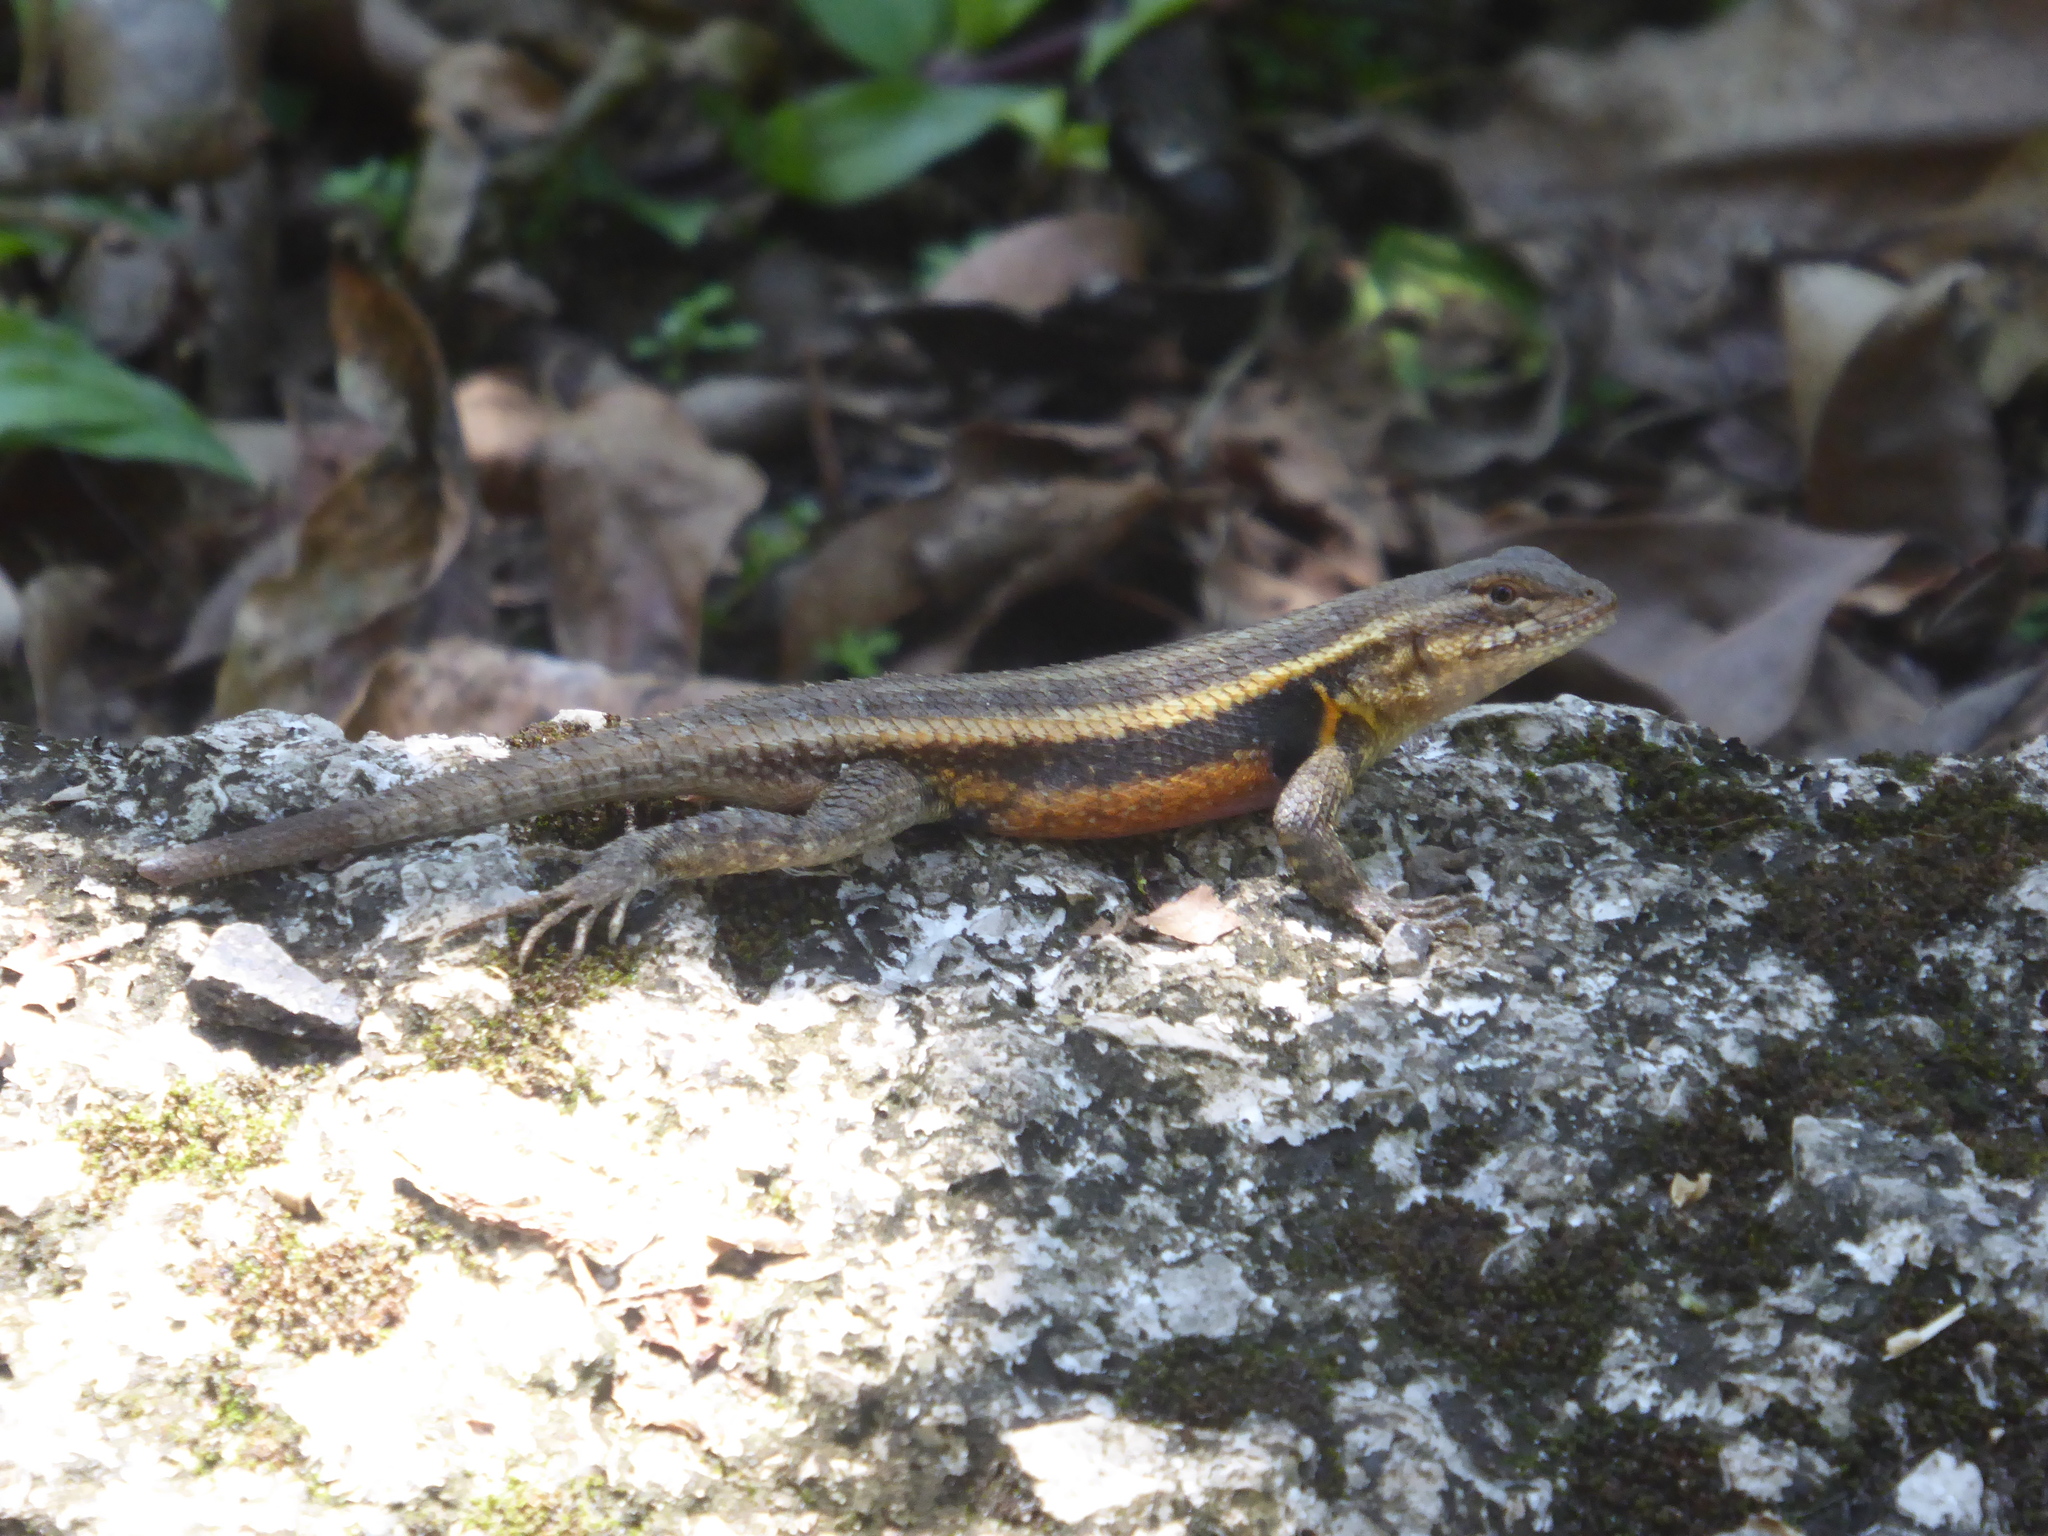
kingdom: Animalia
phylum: Chordata
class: Squamata
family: Phrynosomatidae
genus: Sceloporus
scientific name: Sceloporus teapensis
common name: Teapen rosebelly lizard
